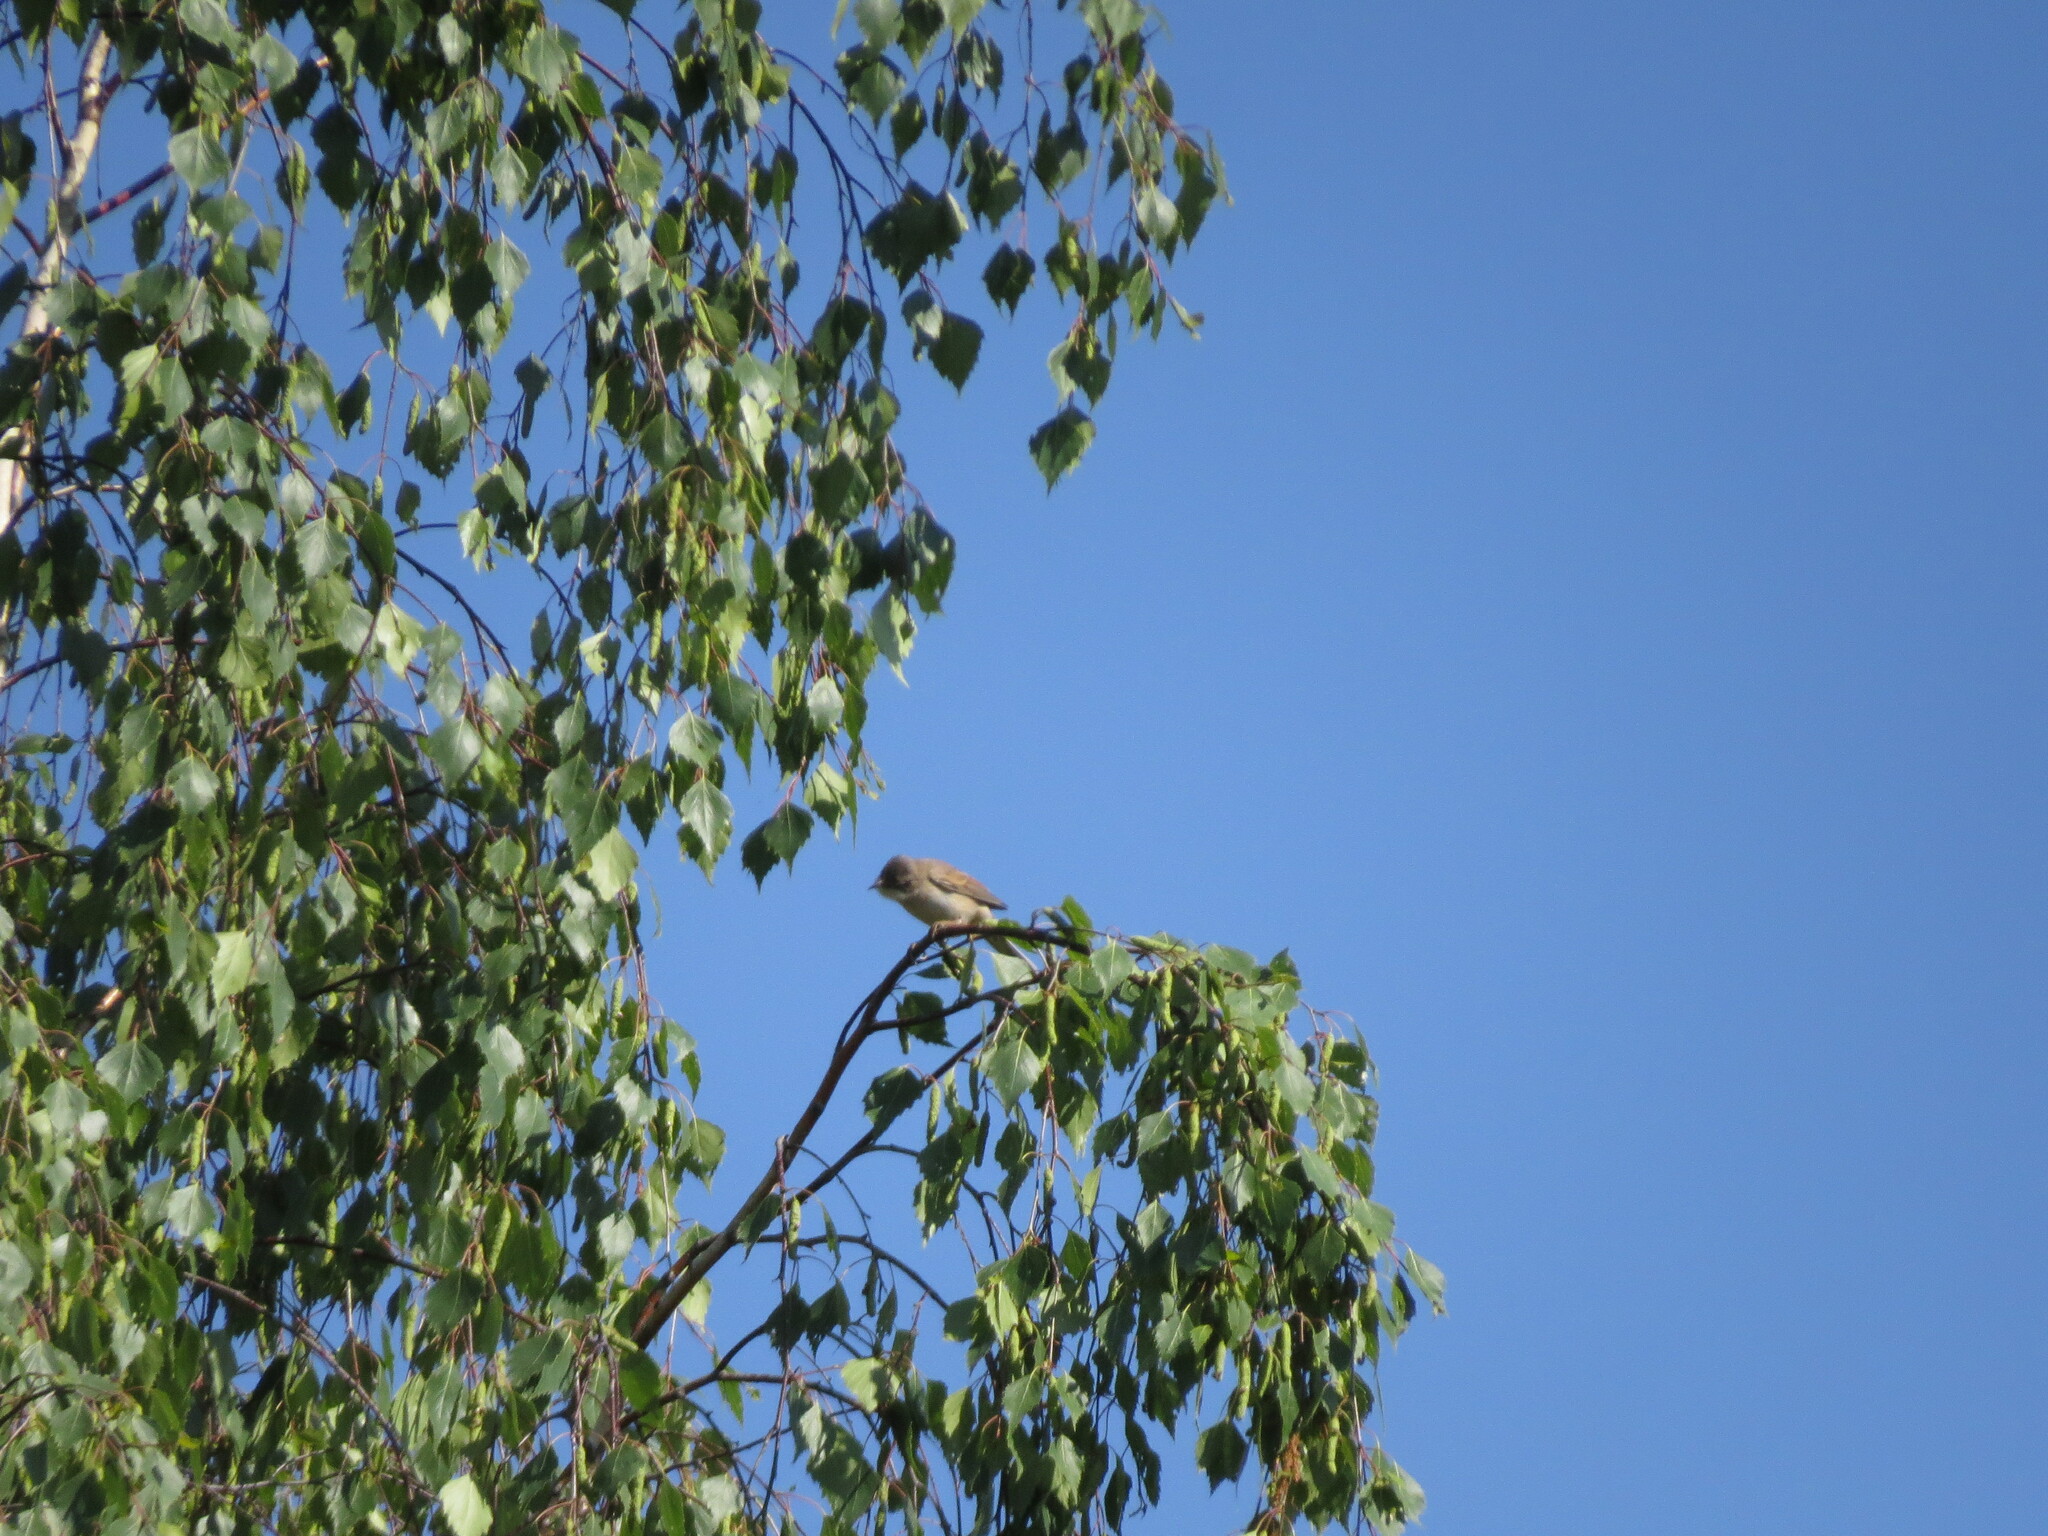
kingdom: Animalia
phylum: Chordata
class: Aves
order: Passeriformes
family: Sylviidae
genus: Sylvia
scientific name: Sylvia communis
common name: Common whitethroat
